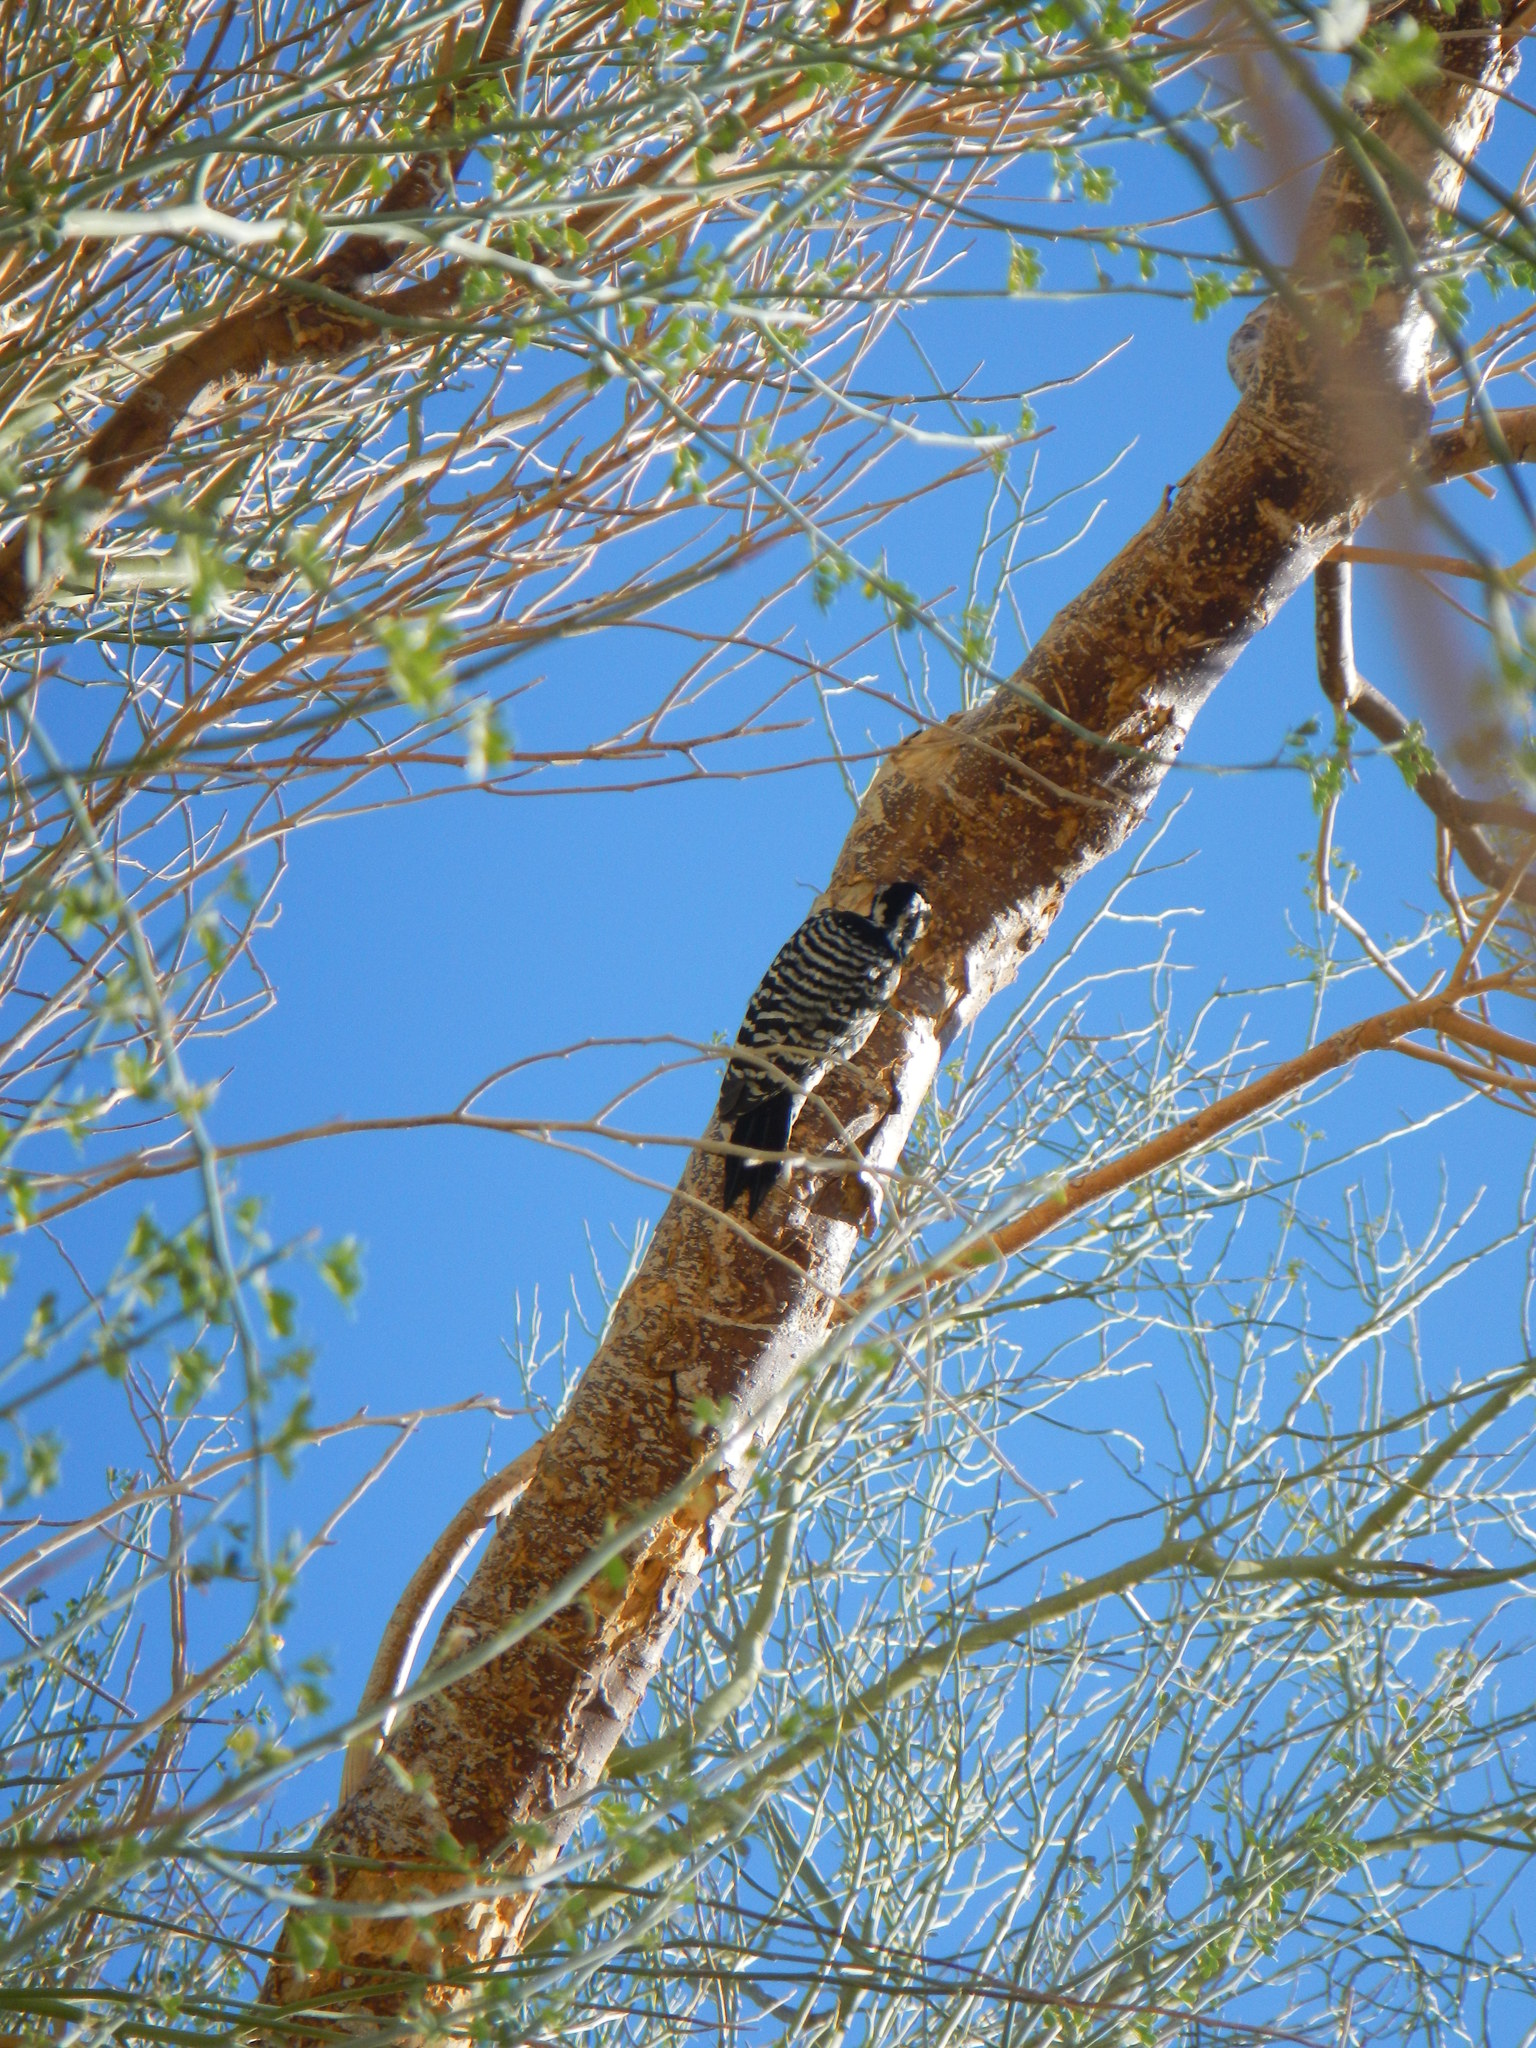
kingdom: Animalia
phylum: Chordata
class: Aves
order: Piciformes
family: Picidae
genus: Dryobates
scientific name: Dryobates scalaris
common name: Ladder-backed woodpecker
